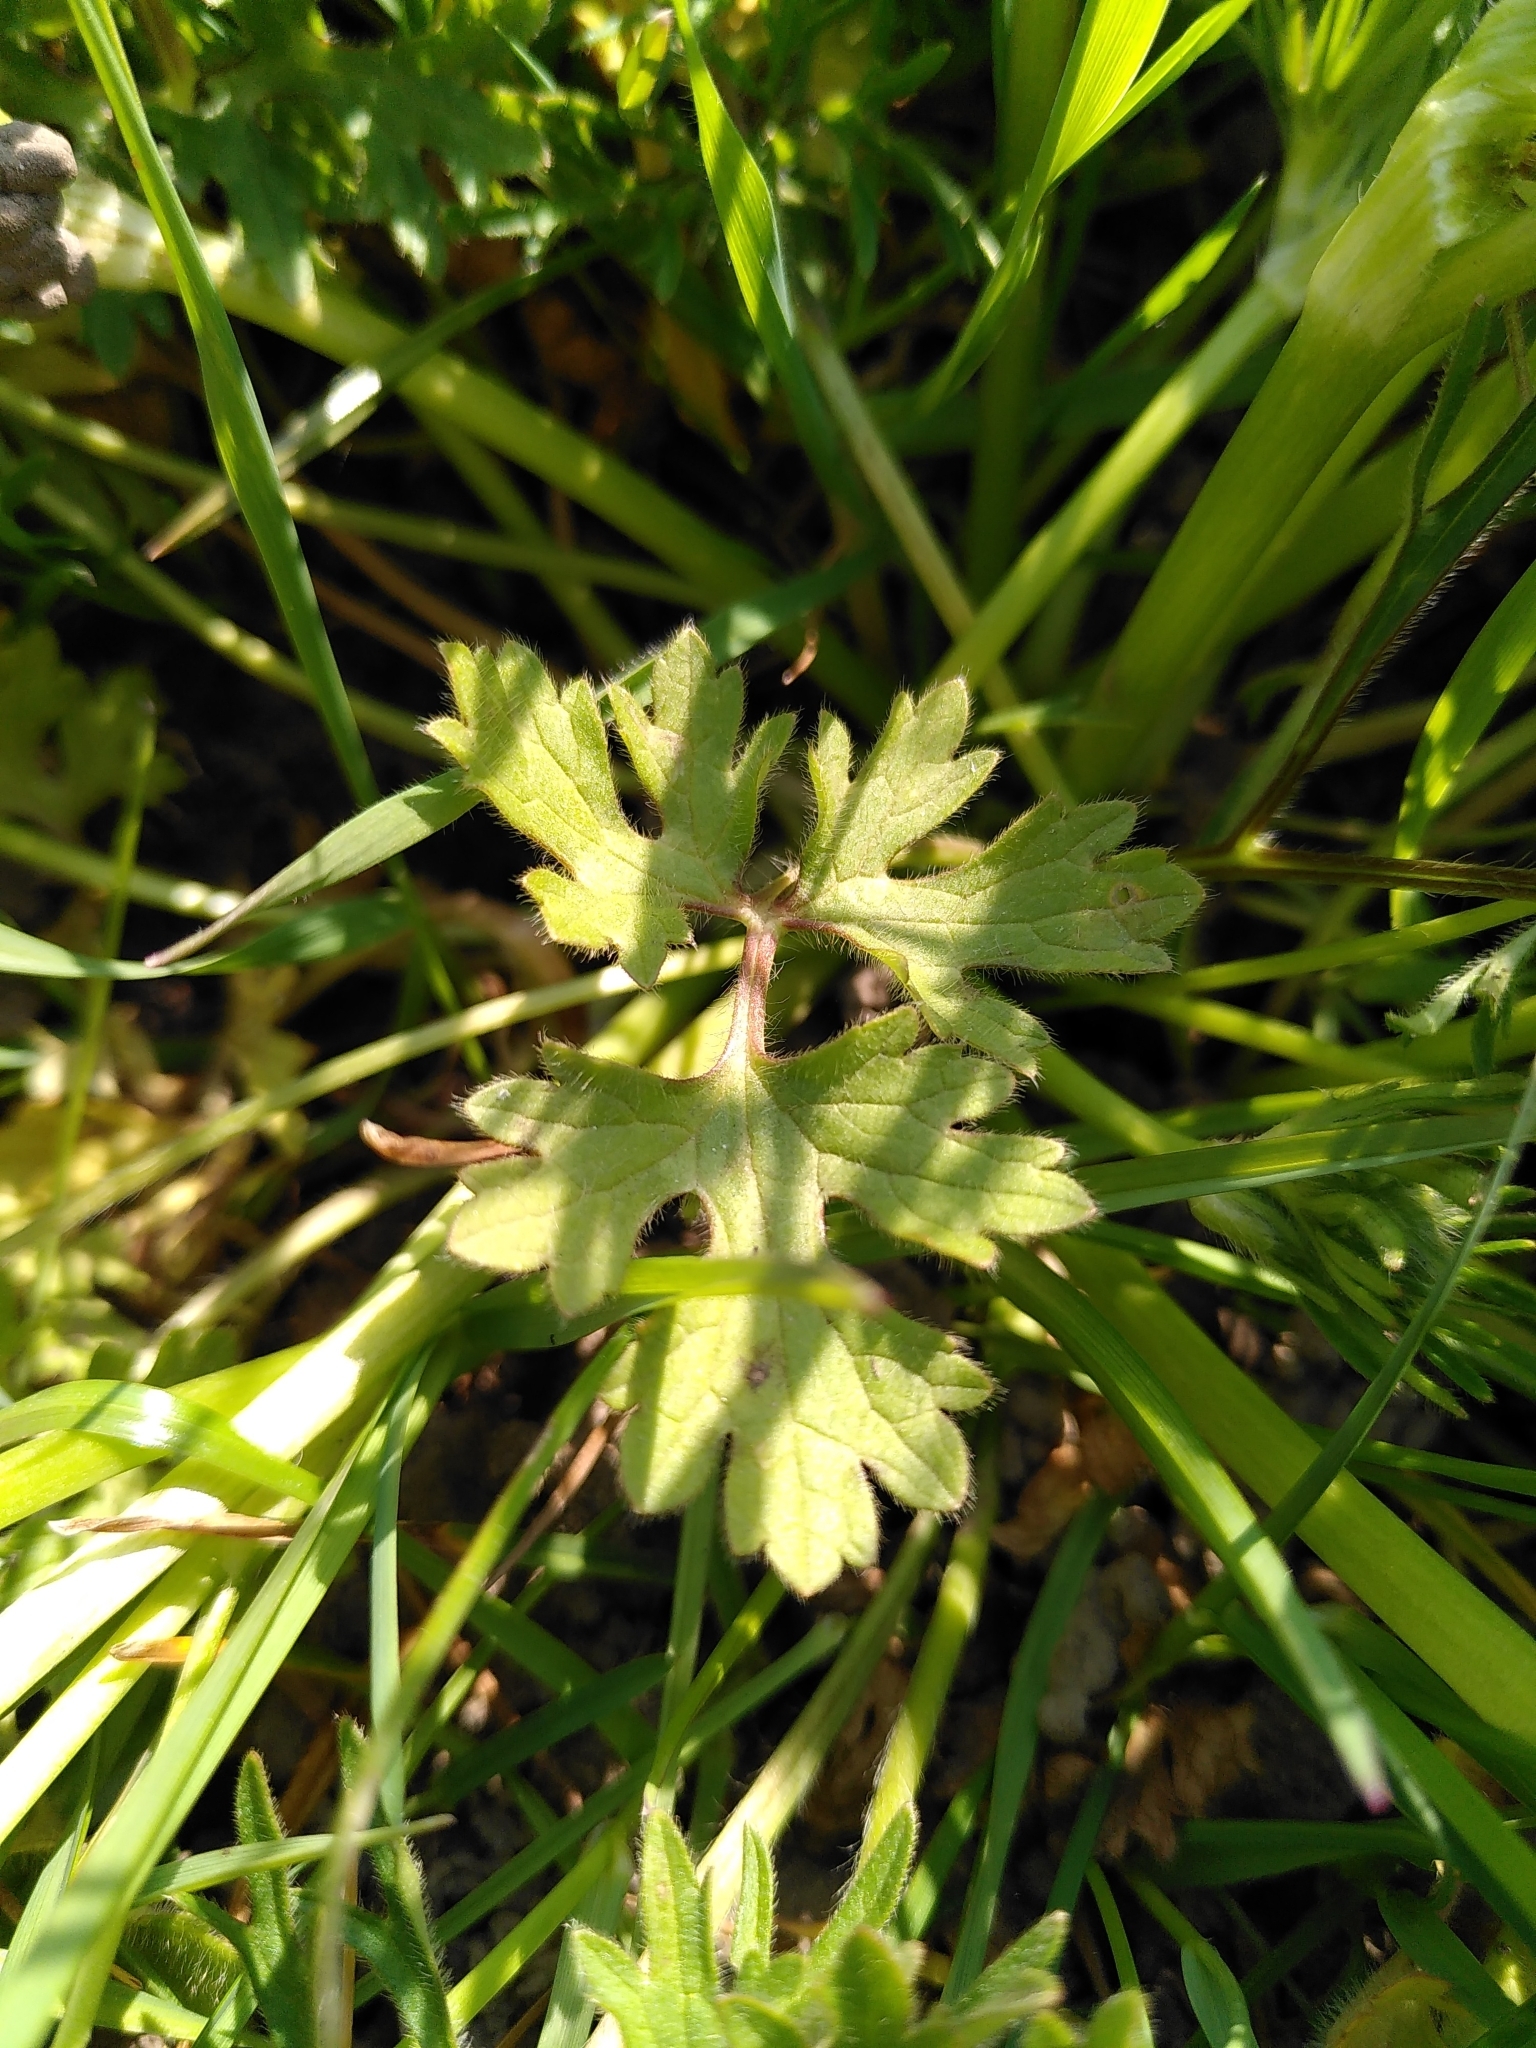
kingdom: Plantae
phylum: Tracheophyta
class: Magnoliopsida
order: Ranunculales
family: Ranunculaceae
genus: Ranunculus
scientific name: Ranunculus bulbosus
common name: Bulbous buttercup
